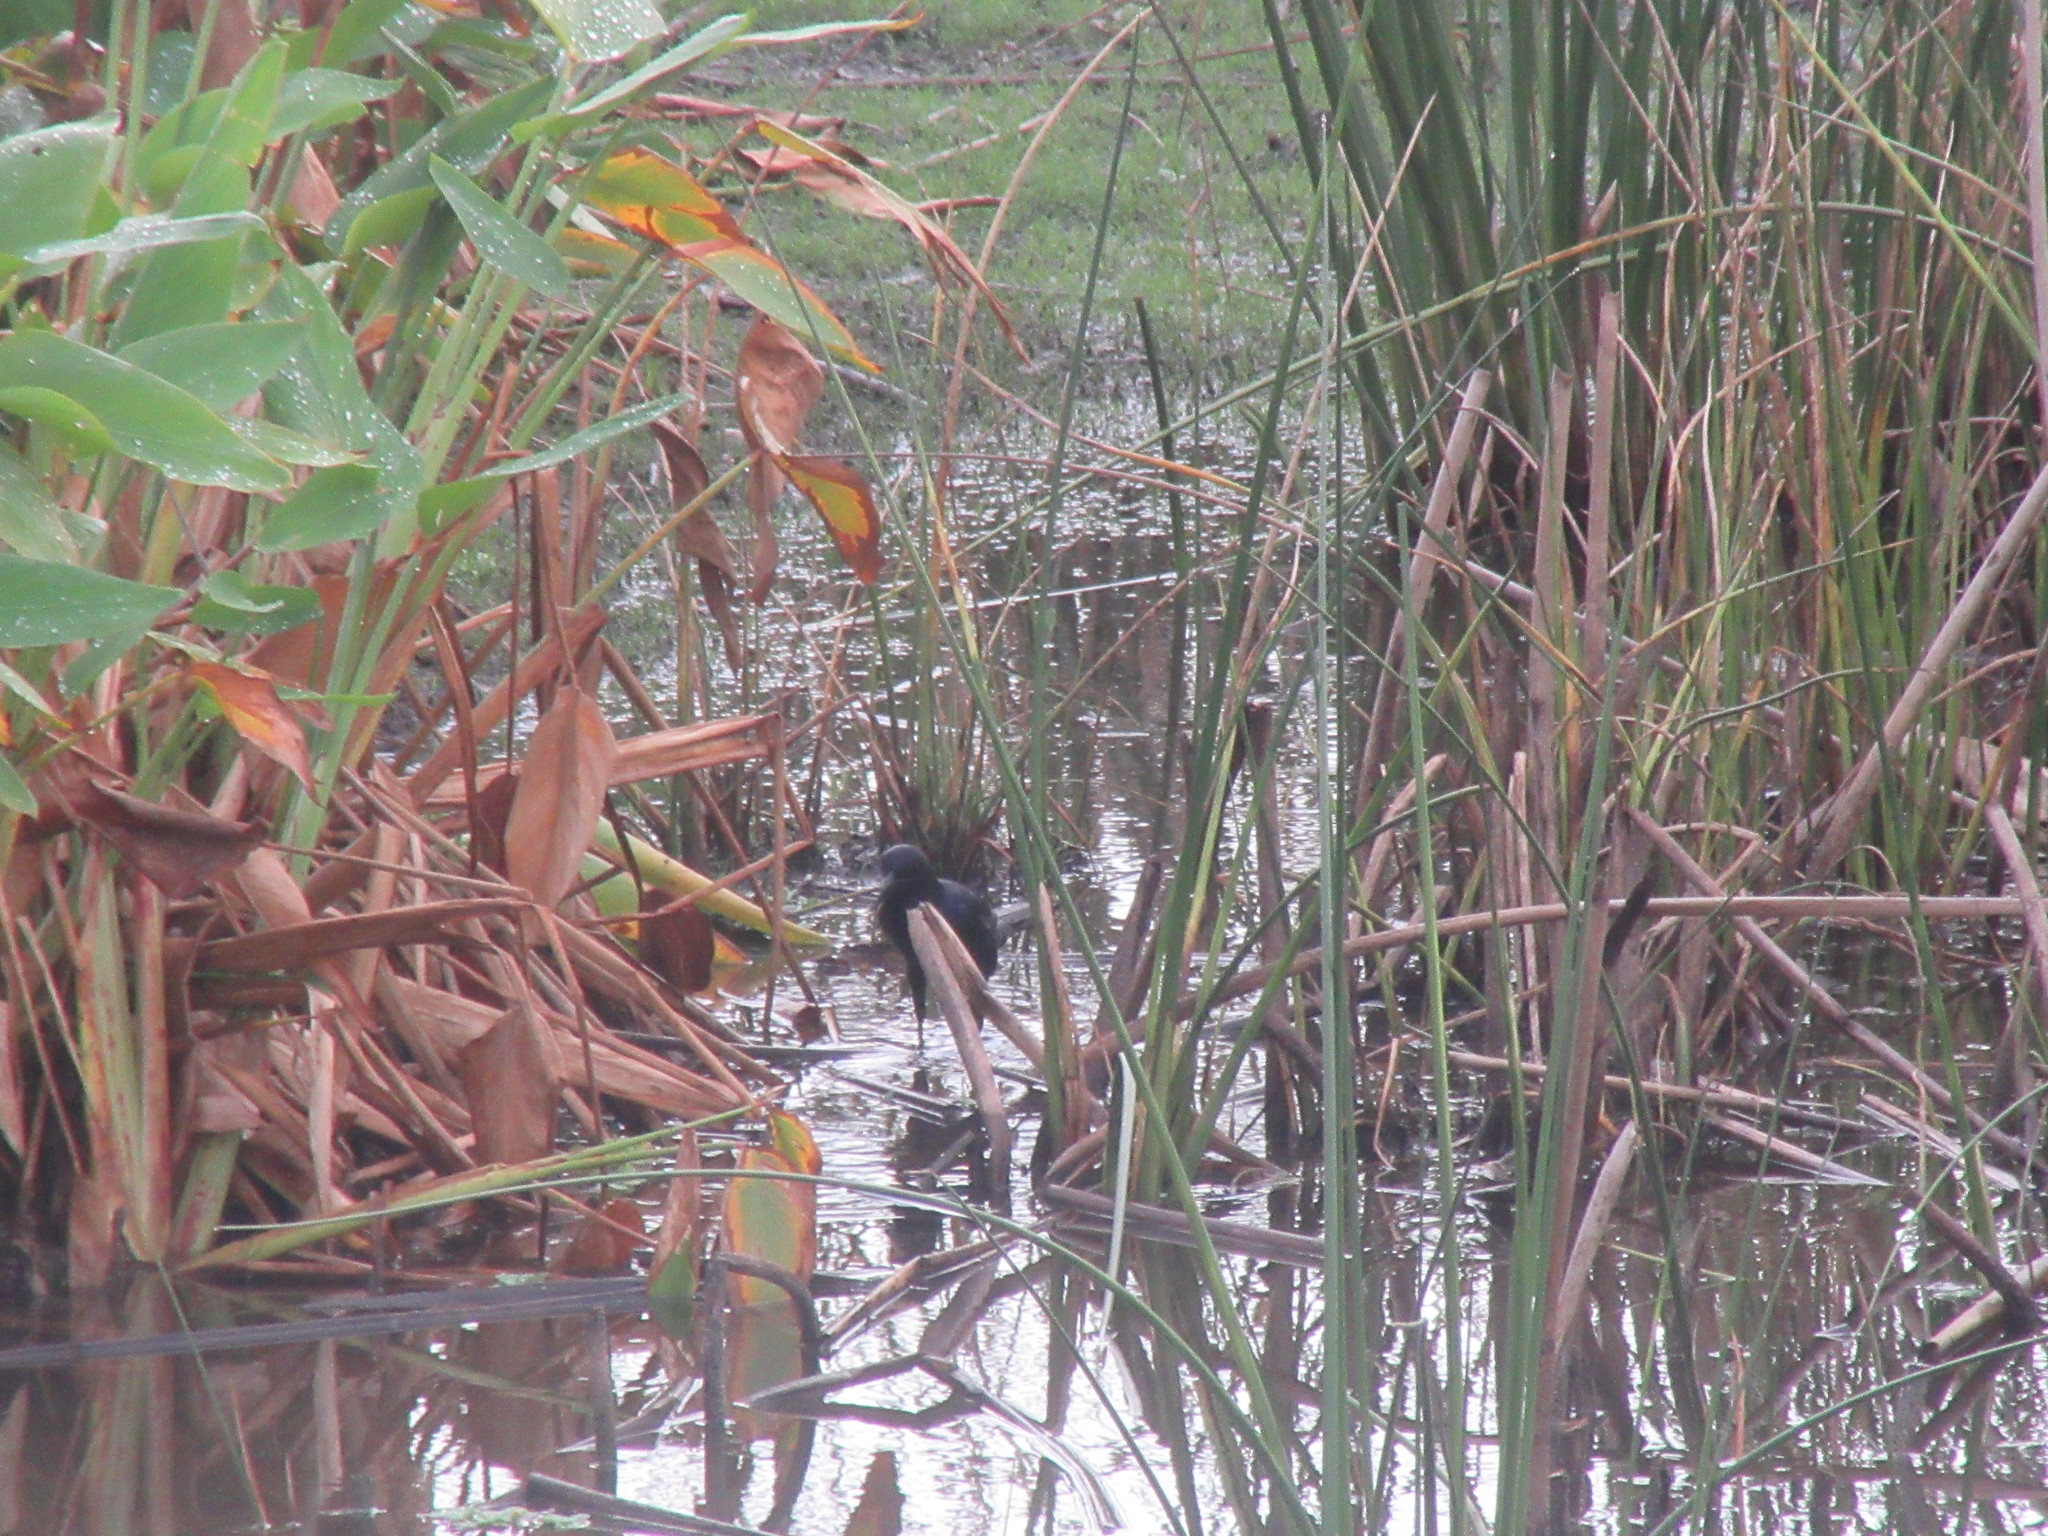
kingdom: Animalia
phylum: Chordata
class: Aves
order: Passeriformes
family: Icteridae
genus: Quiscalus
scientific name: Quiscalus major
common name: Boat-tailed grackle
